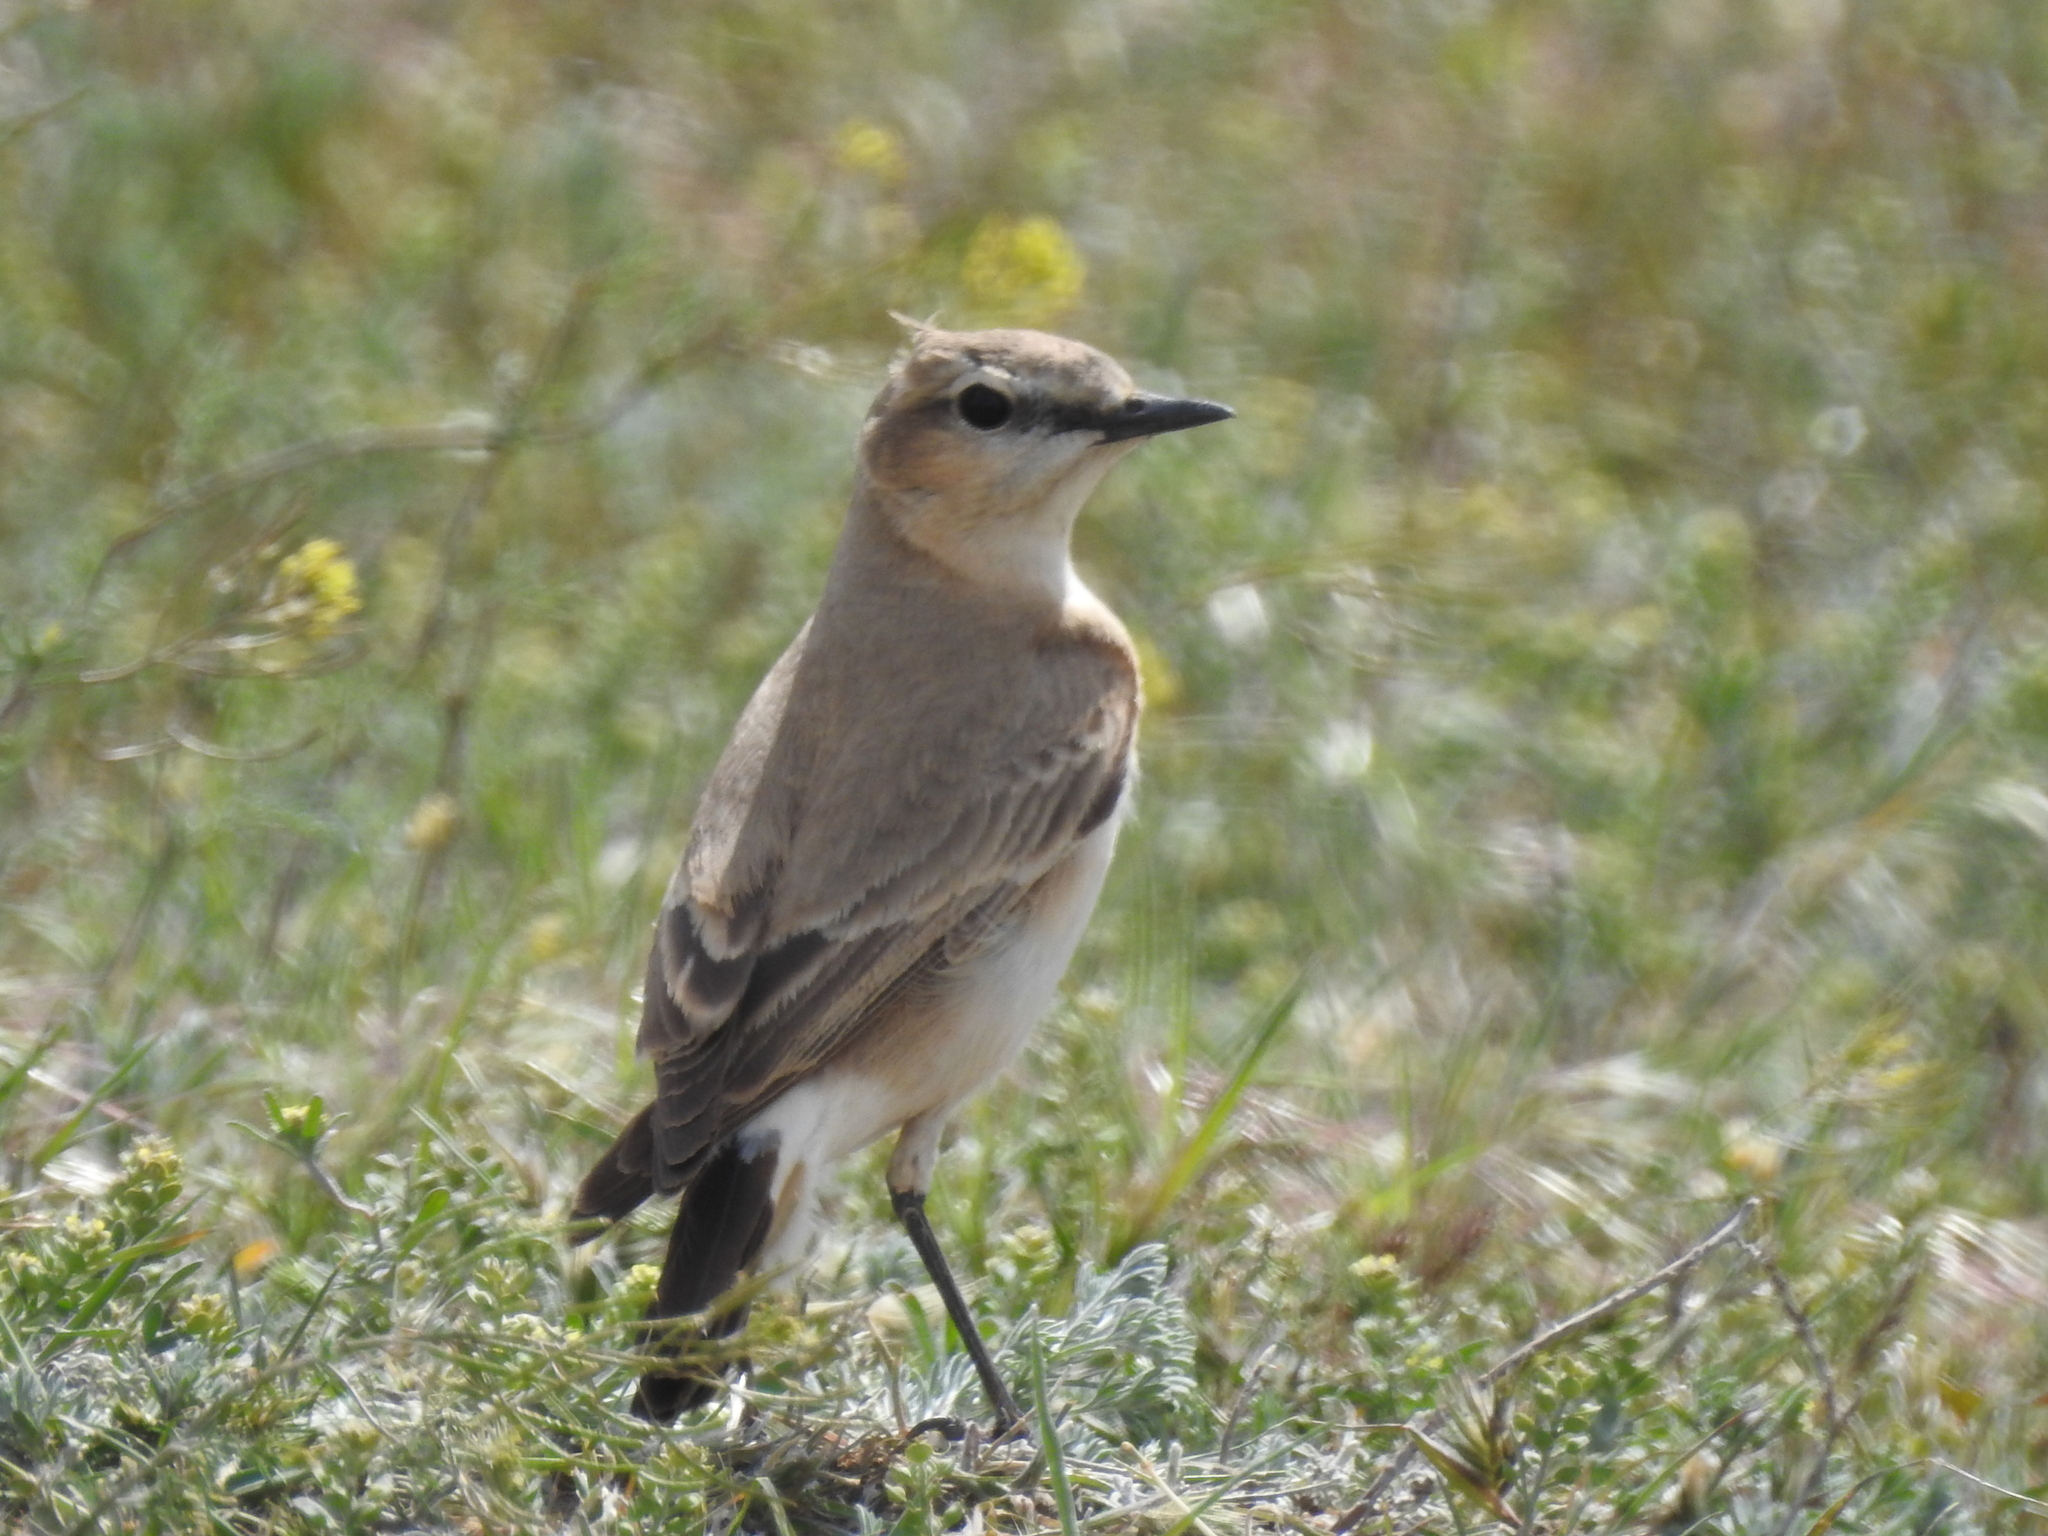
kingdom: Animalia
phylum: Chordata
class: Aves
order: Passeriformes
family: Muscicapidae
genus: Oenanthe
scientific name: Oenanthe isabellina
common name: Isabelline wheatear
